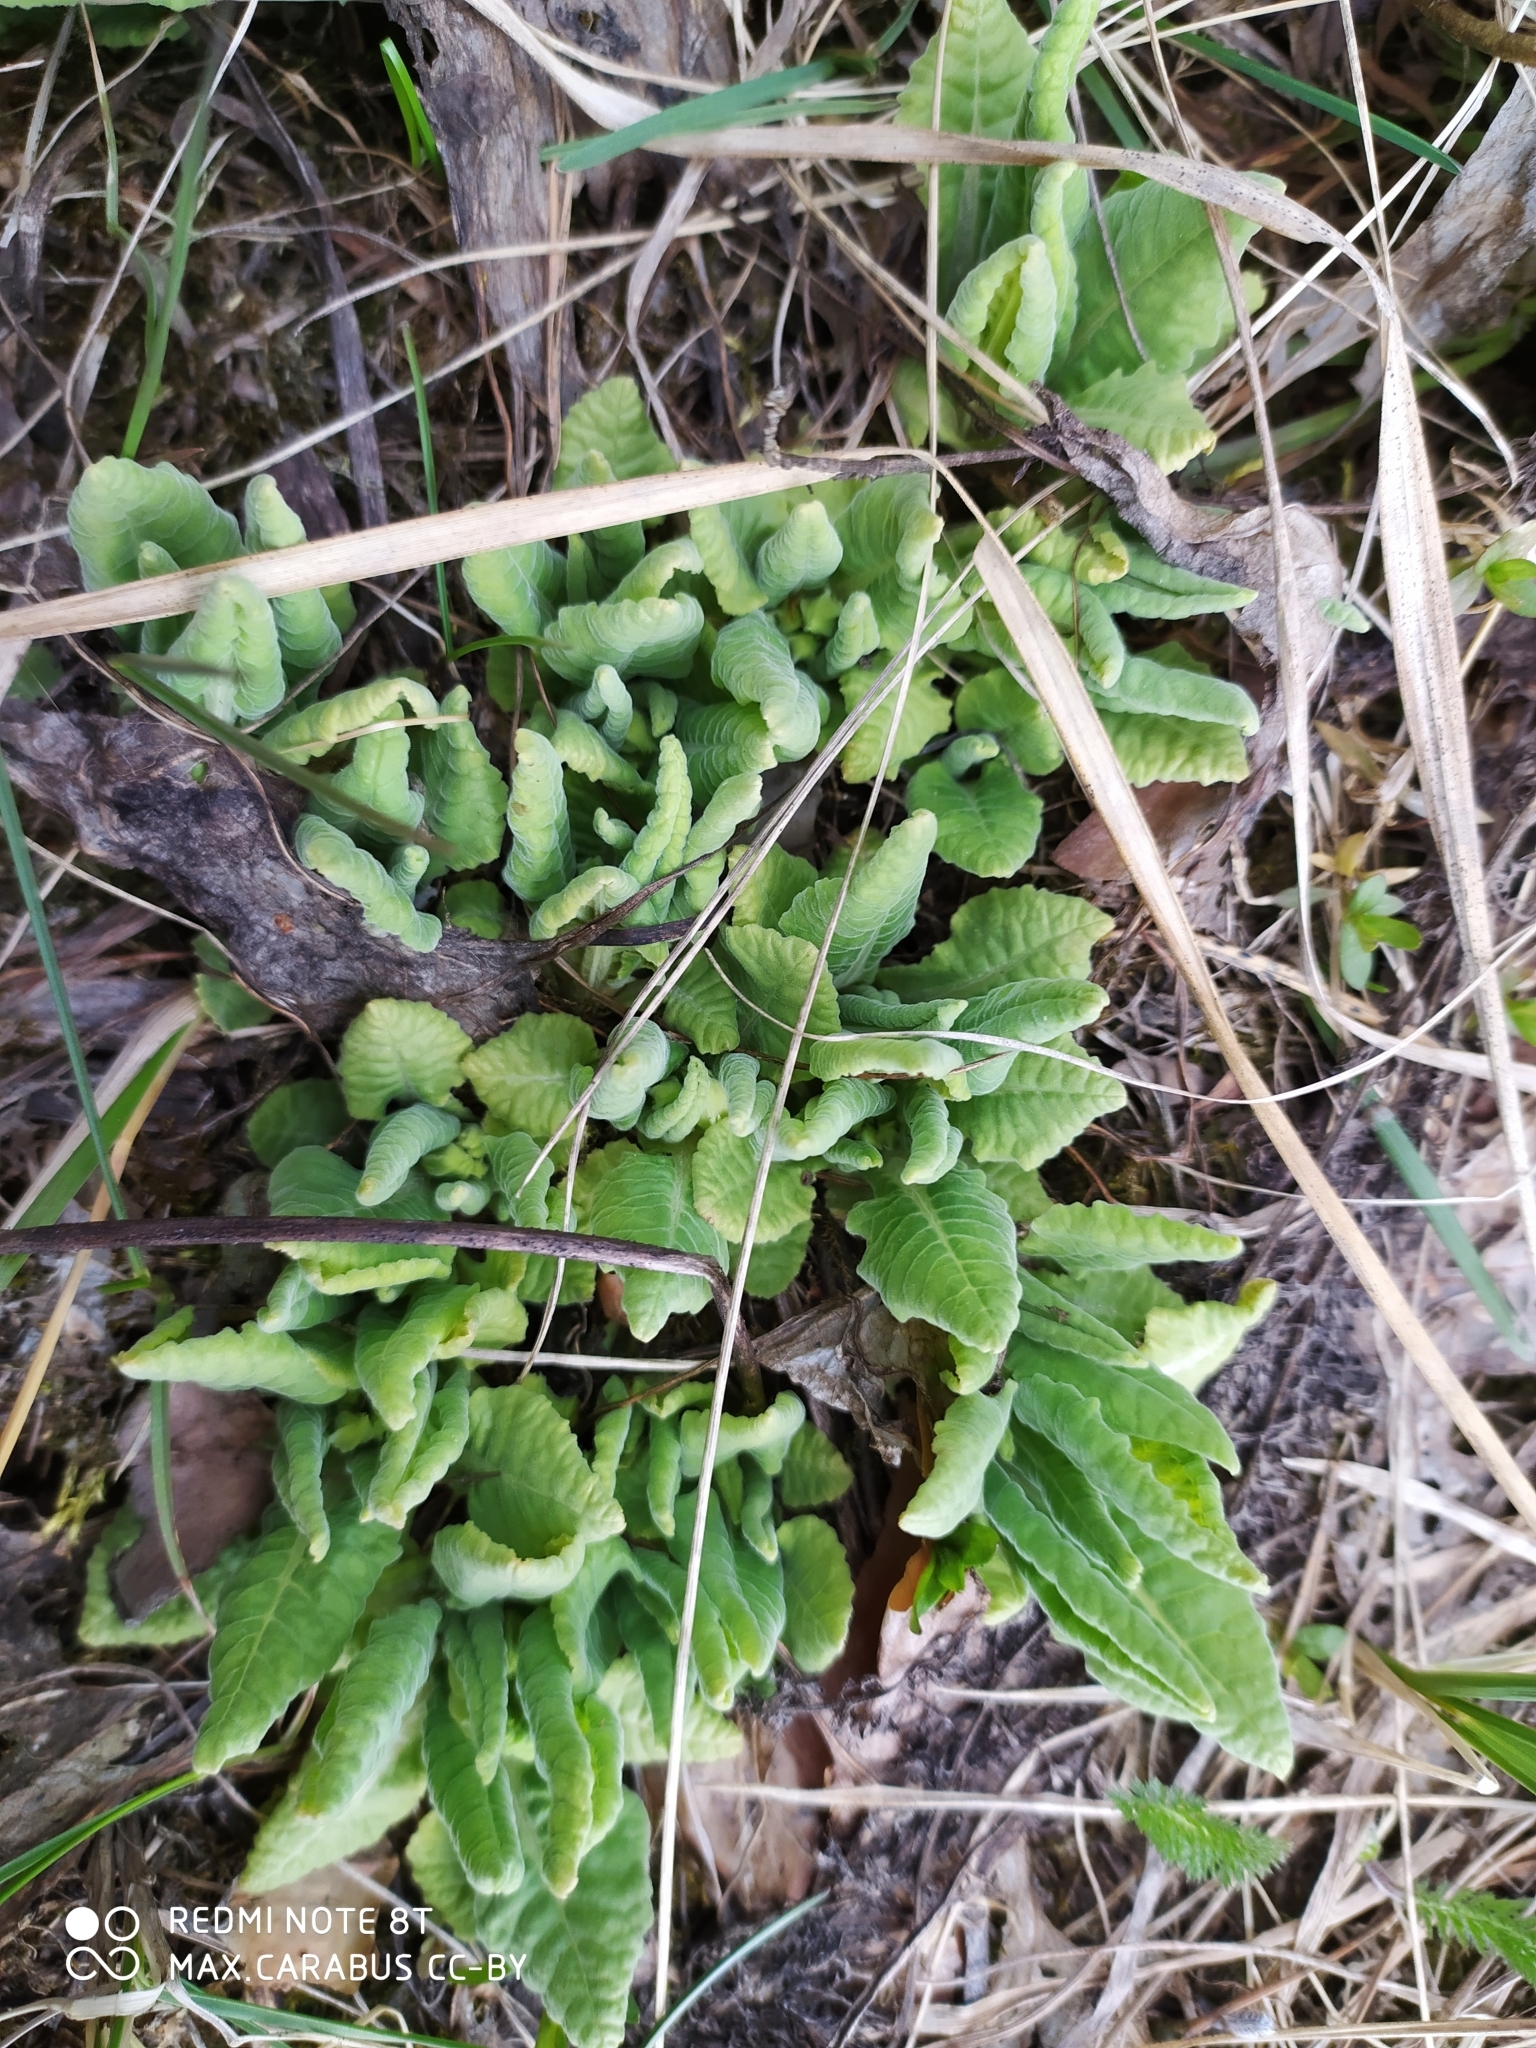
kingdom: Plantae
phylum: Tracheophyta
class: Magnoliopsida
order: Ericales
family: Primulaceae
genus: Primula
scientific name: Primula veris
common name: Cowslip
